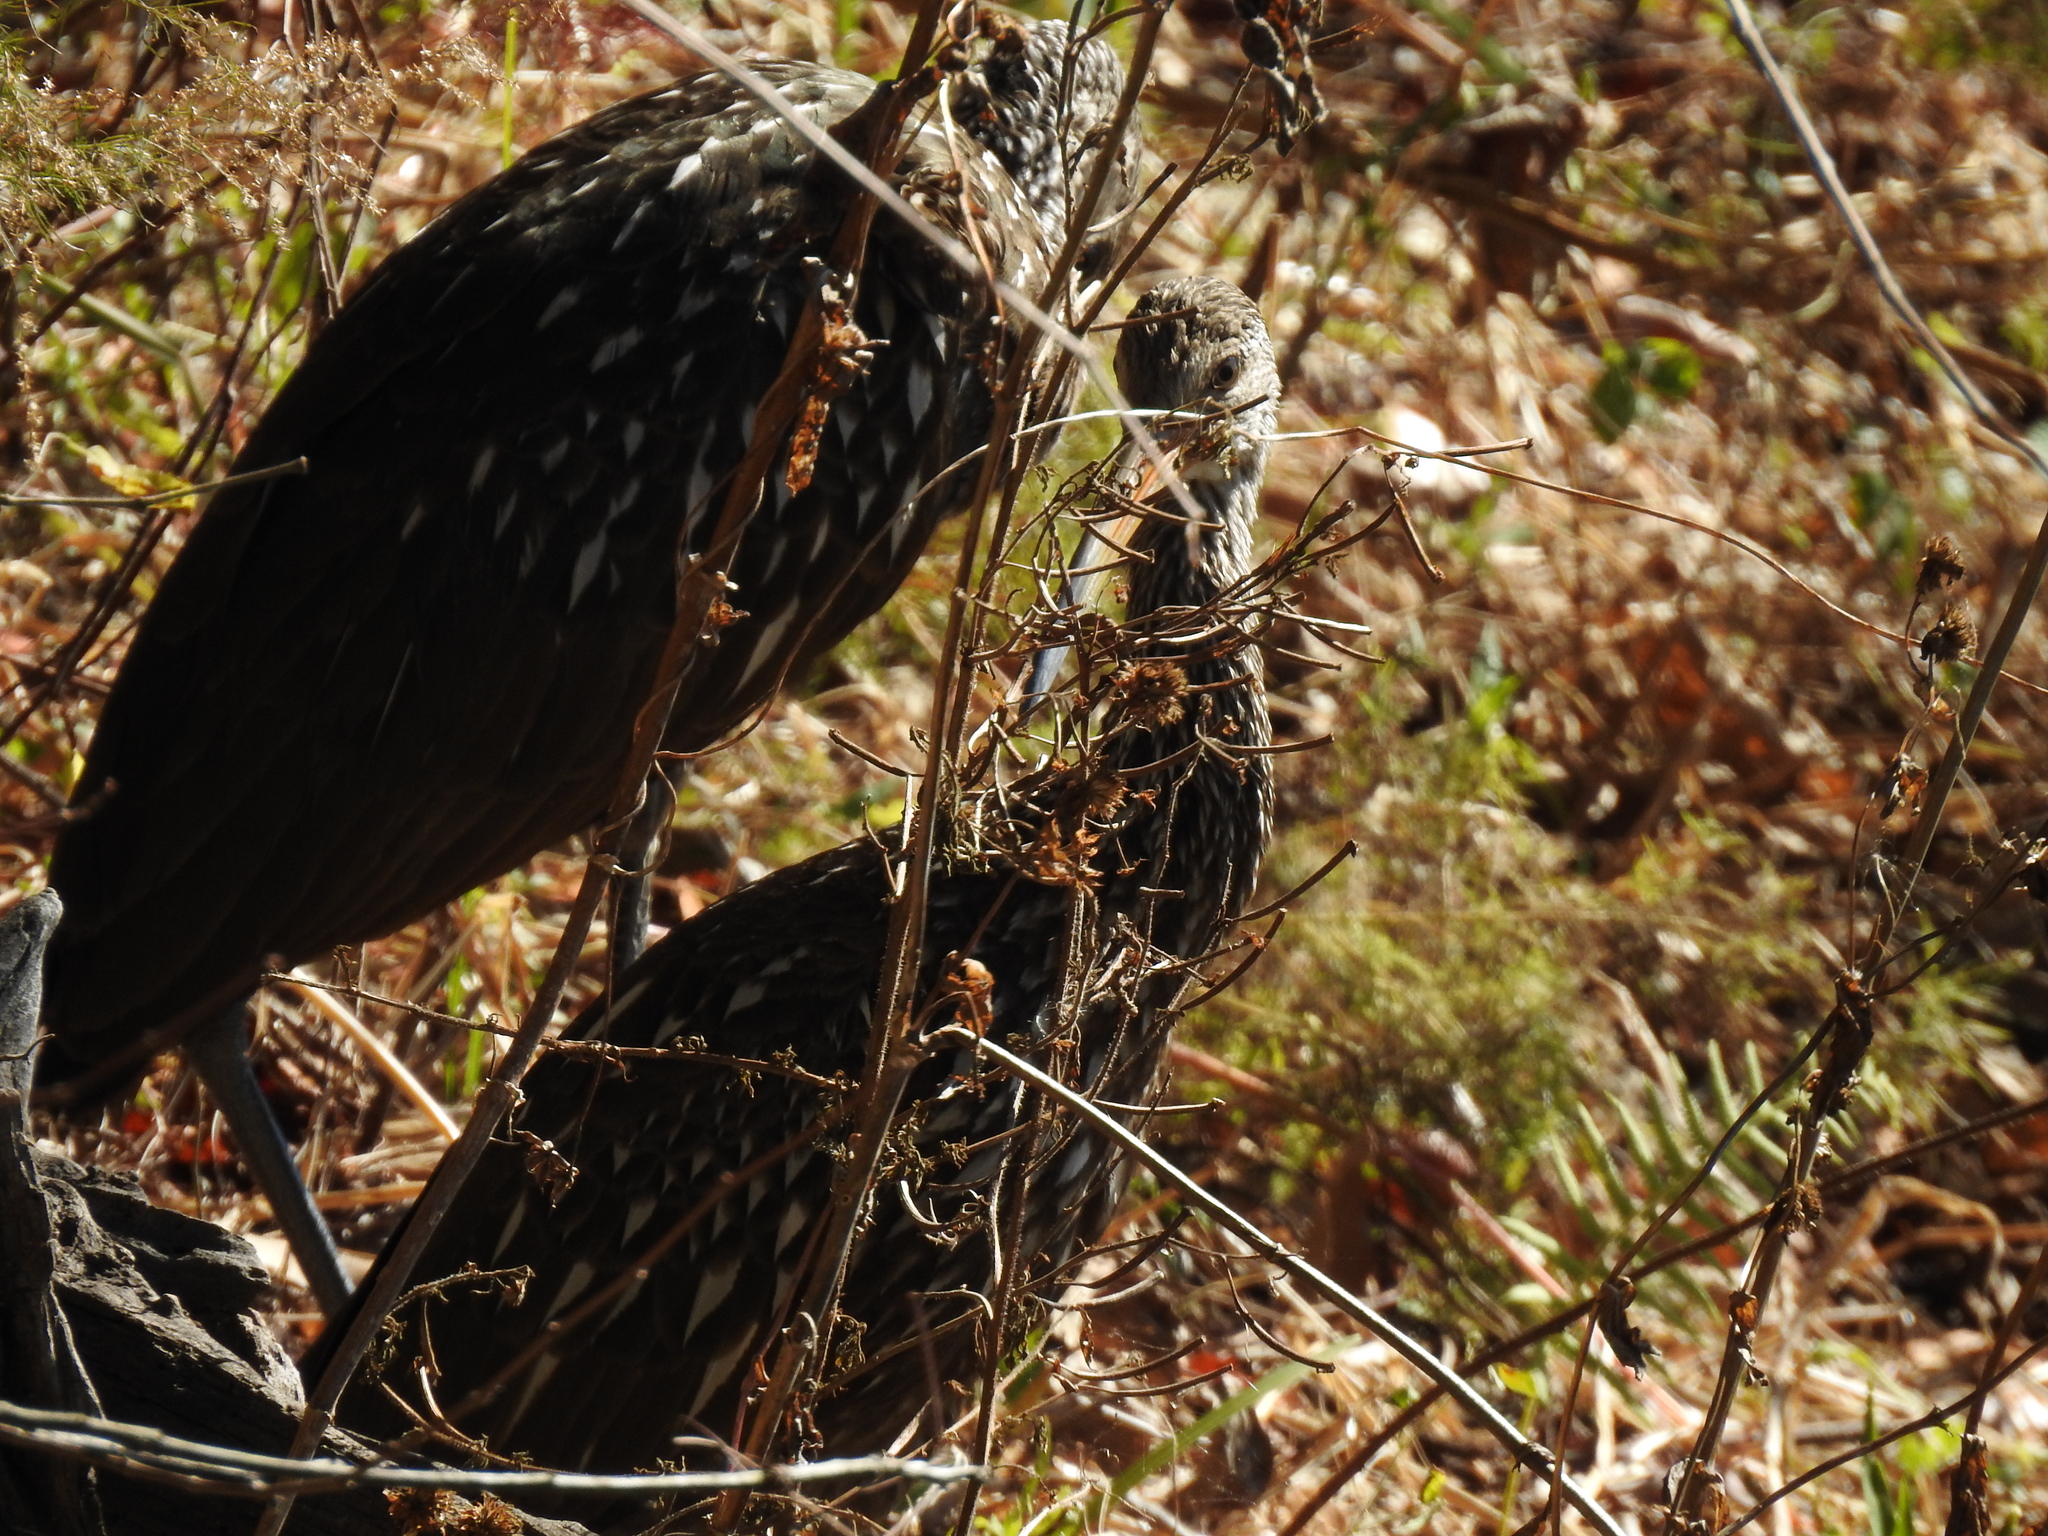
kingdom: Animalia
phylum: Chordata
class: Aves
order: Gruiformes
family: Aramidae
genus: Aramus
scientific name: Aramus guarauna
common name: Limpkin
